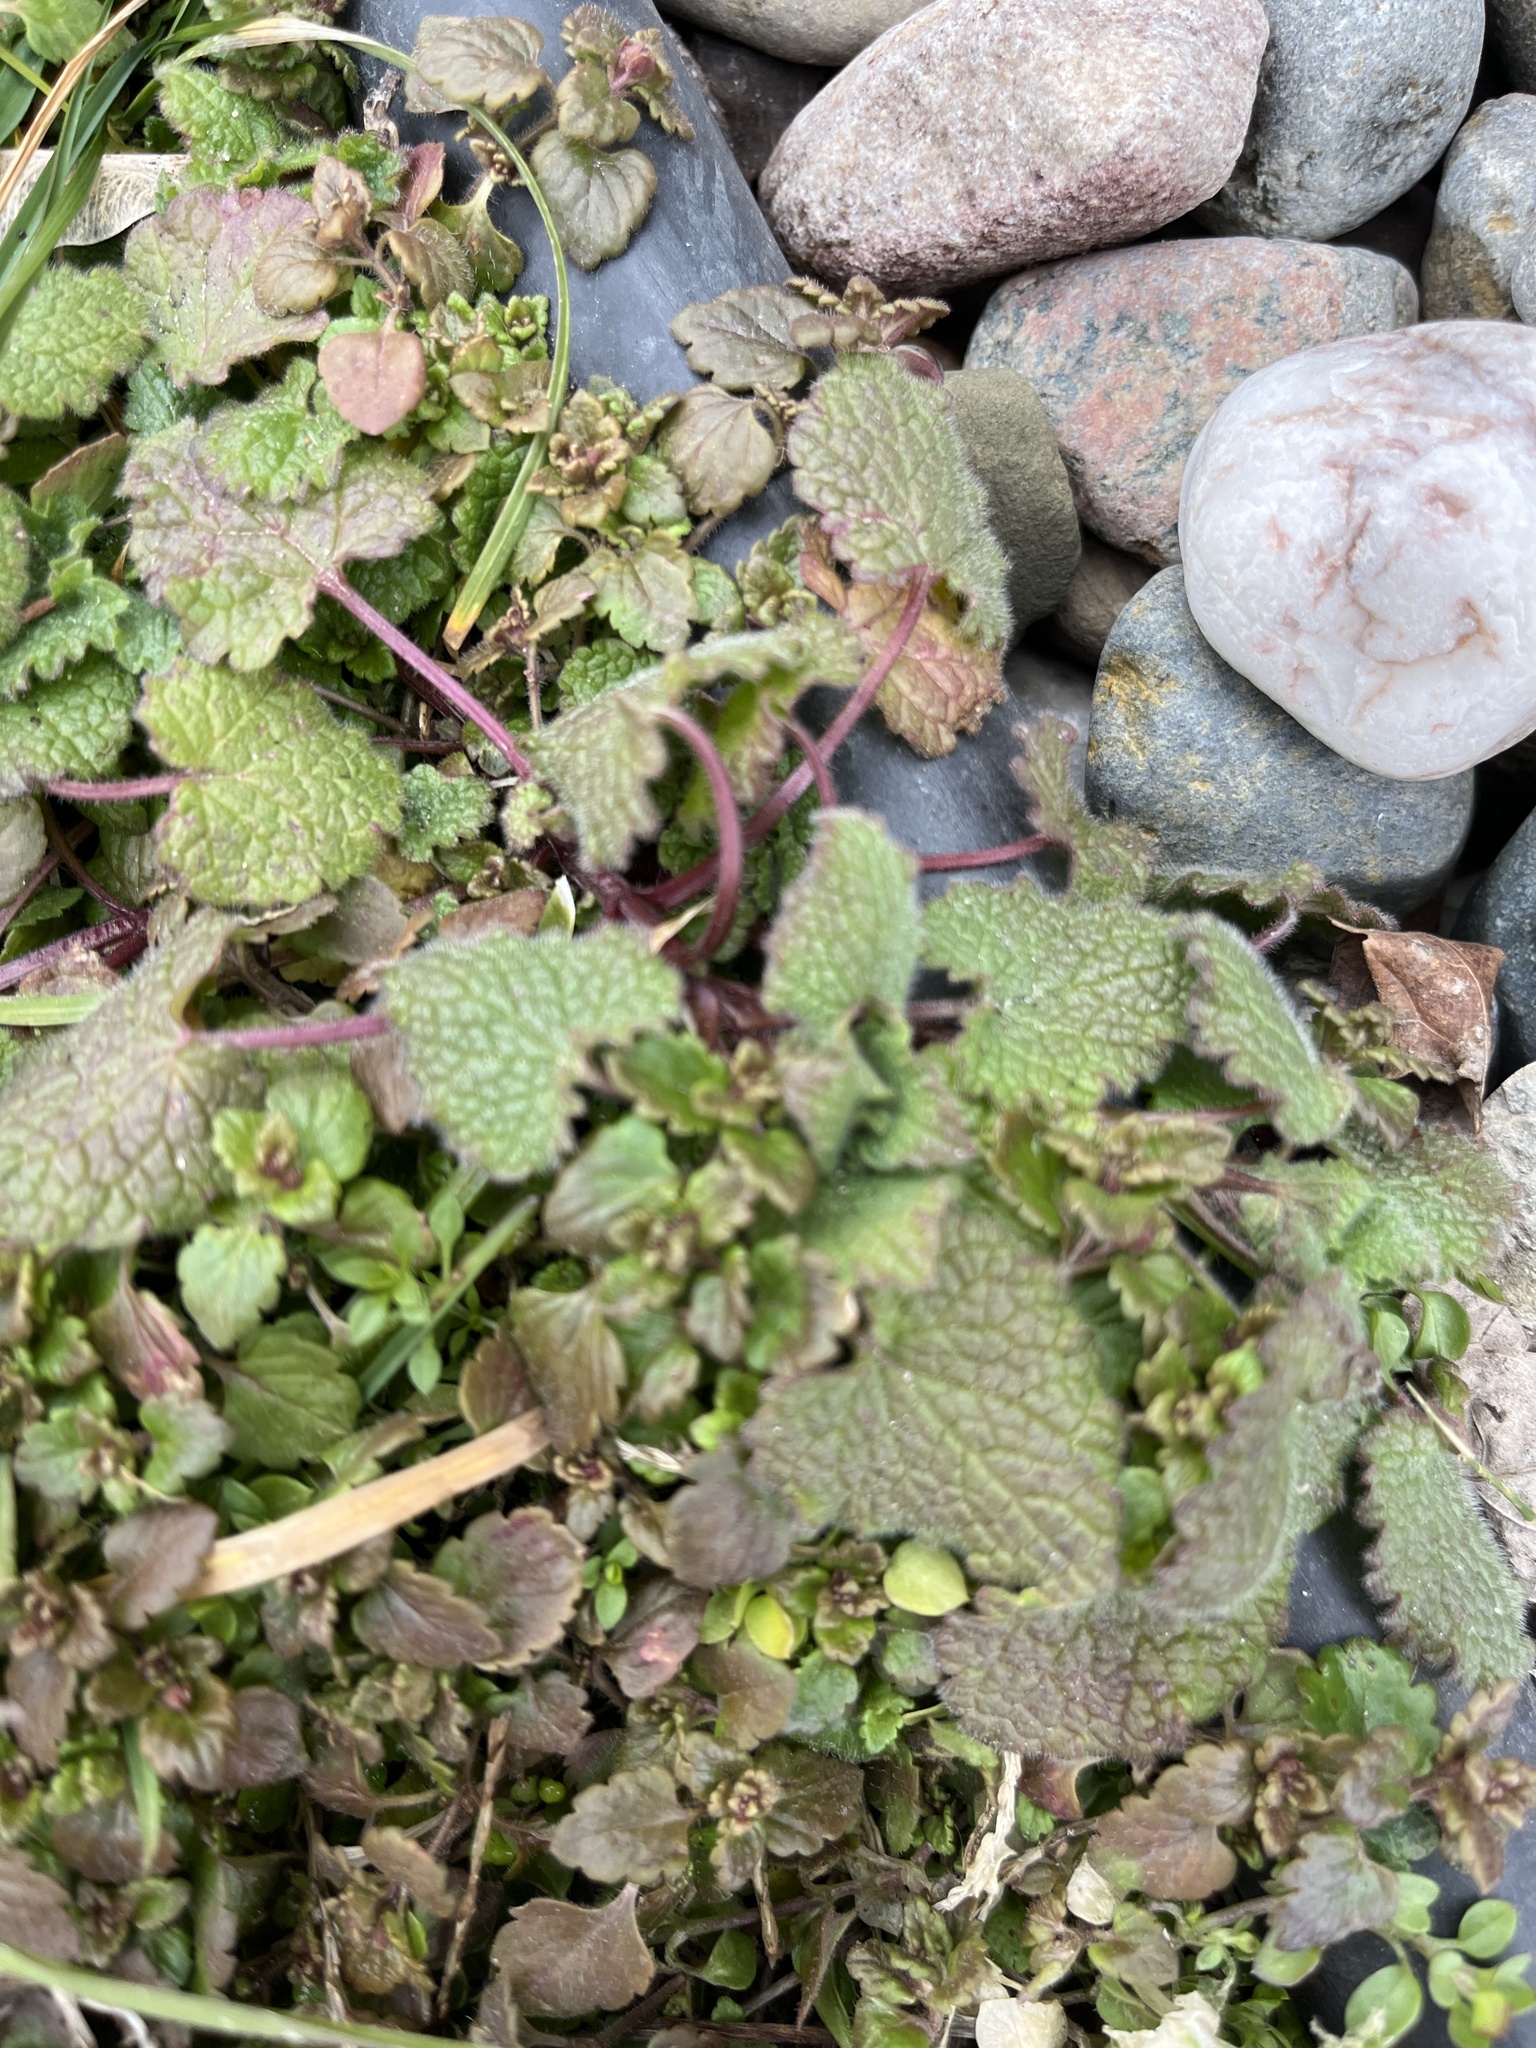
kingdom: Plantae
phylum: Tracheophyta
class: Magnoliopsida
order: Lamiales
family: Lamiaceae
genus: Lamium
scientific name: Lamium purpureum
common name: Red dead-nettle
